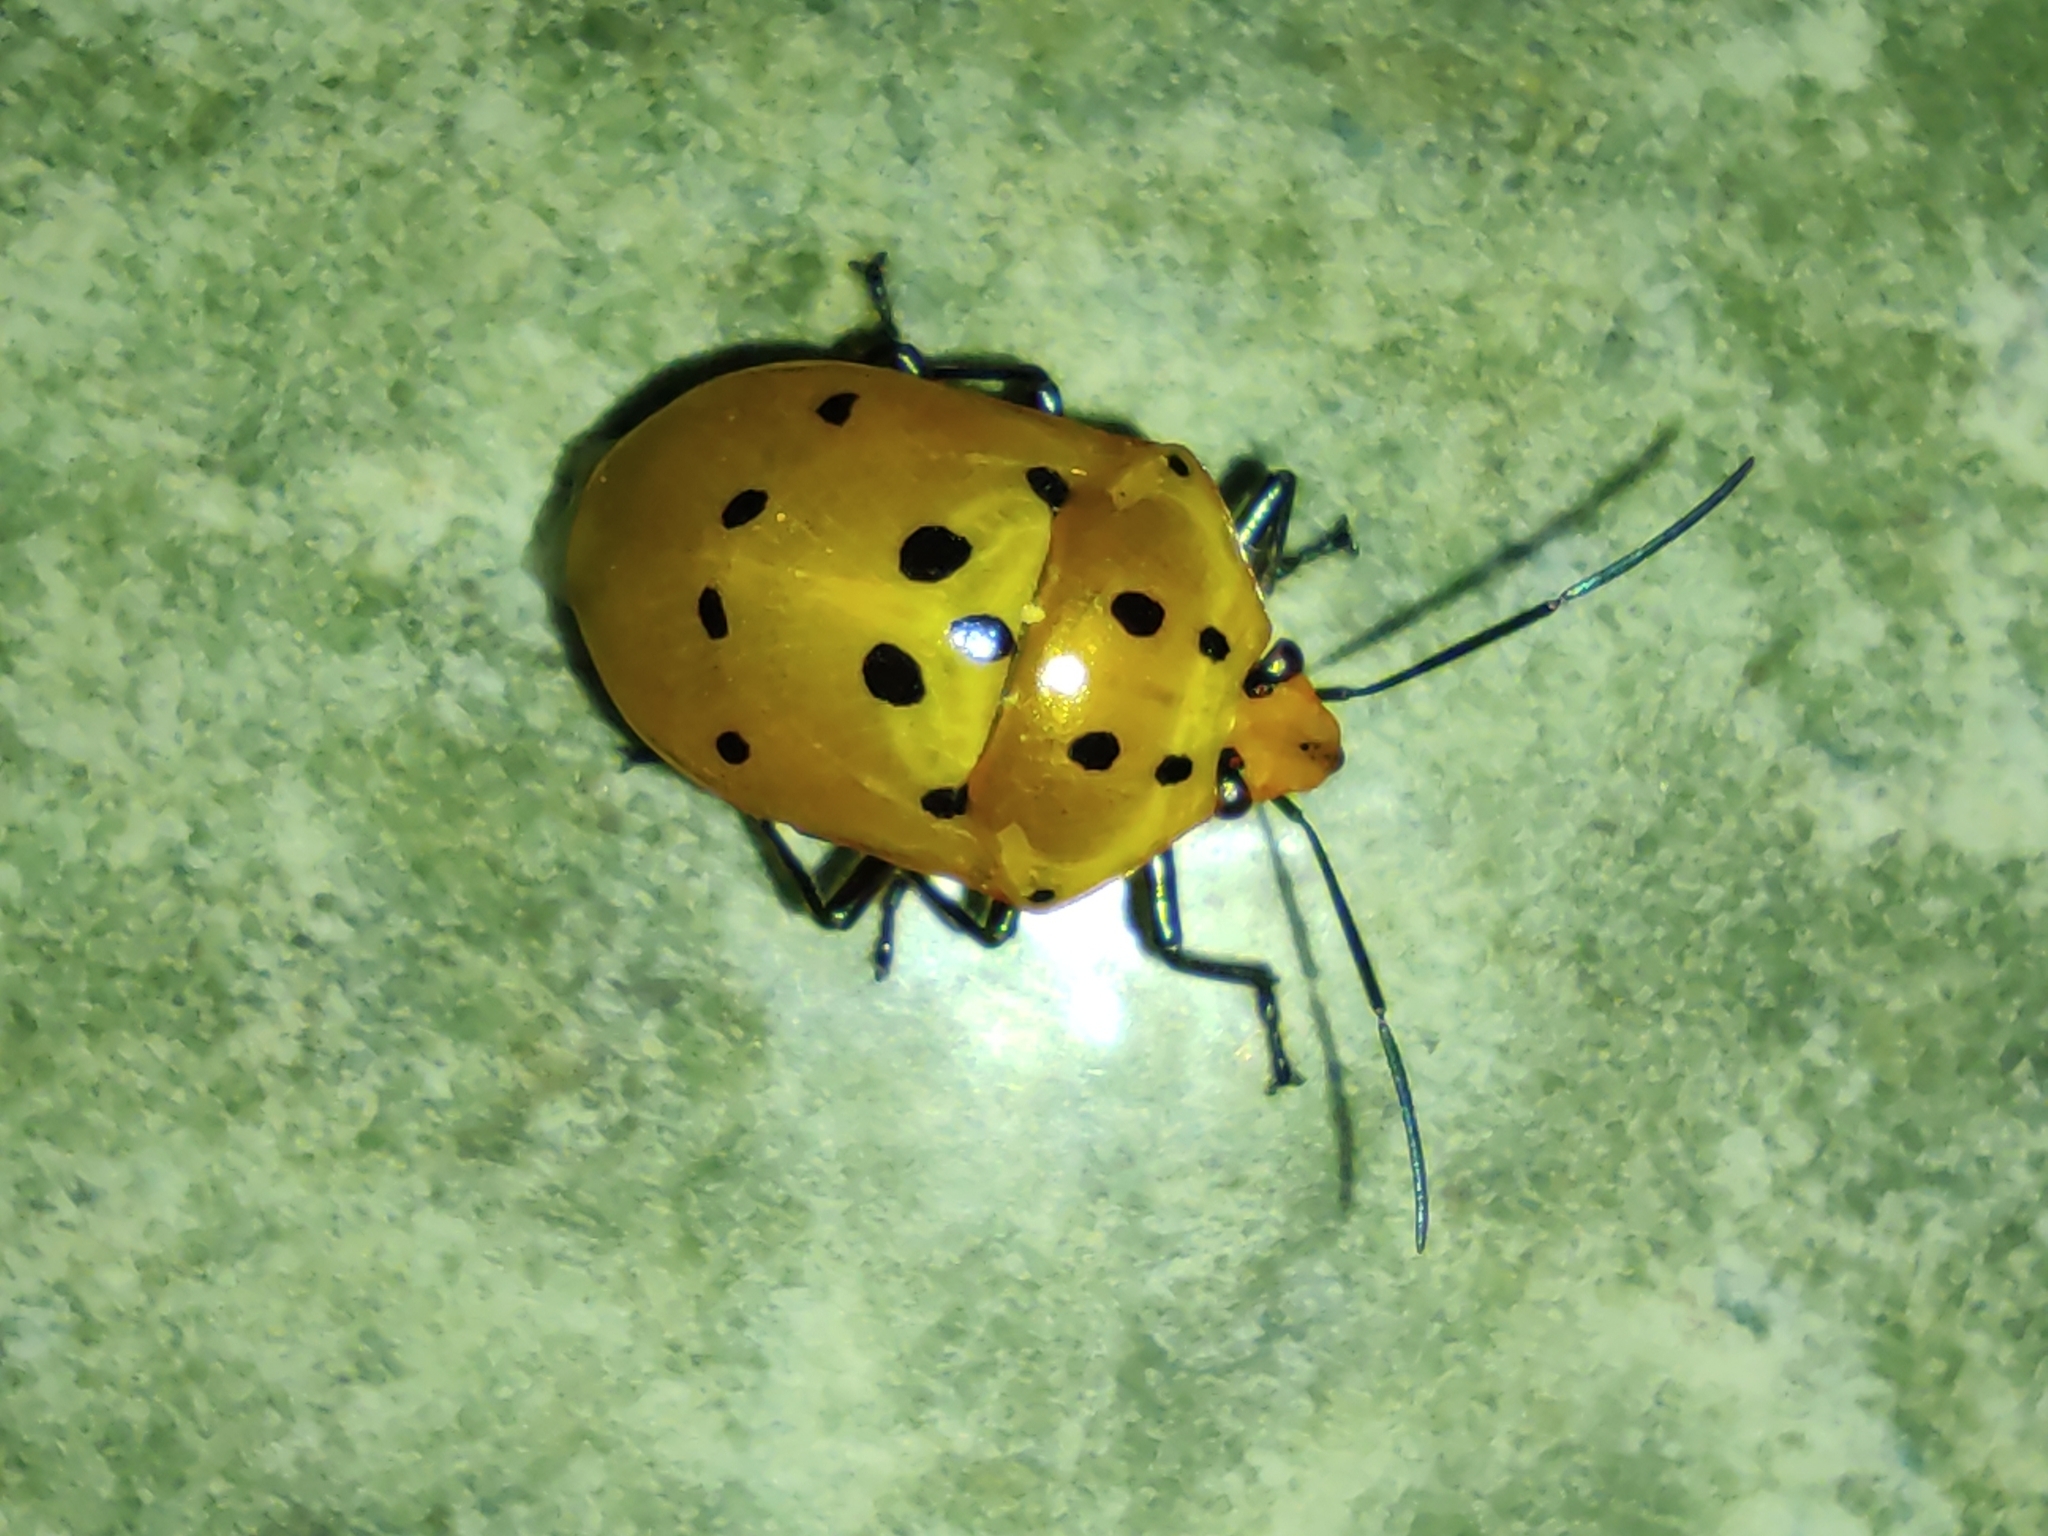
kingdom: Animalia
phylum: Arthropoda
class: Insecta
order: Hemiptera
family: Scutelleridae
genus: Augocoris
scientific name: Augocoris gomesii
